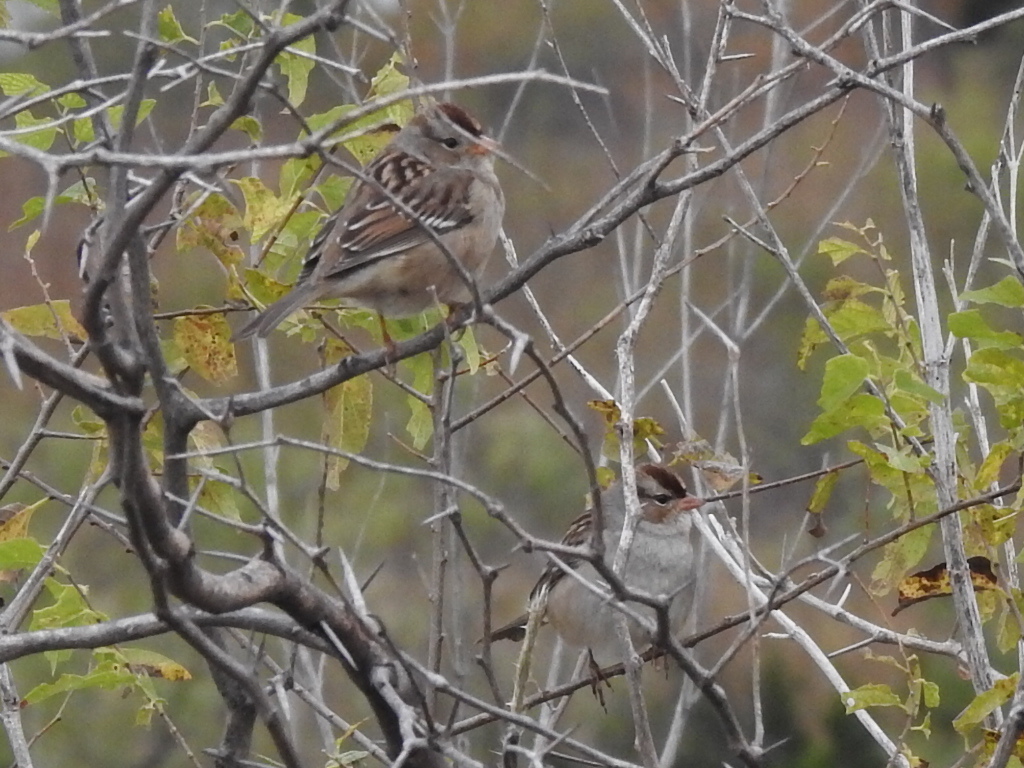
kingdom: Animalia
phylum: Chordata
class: Aves
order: Passeriformes
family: Passerellidae
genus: Zonotrichia
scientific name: Zonotrichia leucophrys
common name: White-crowned sparrow
